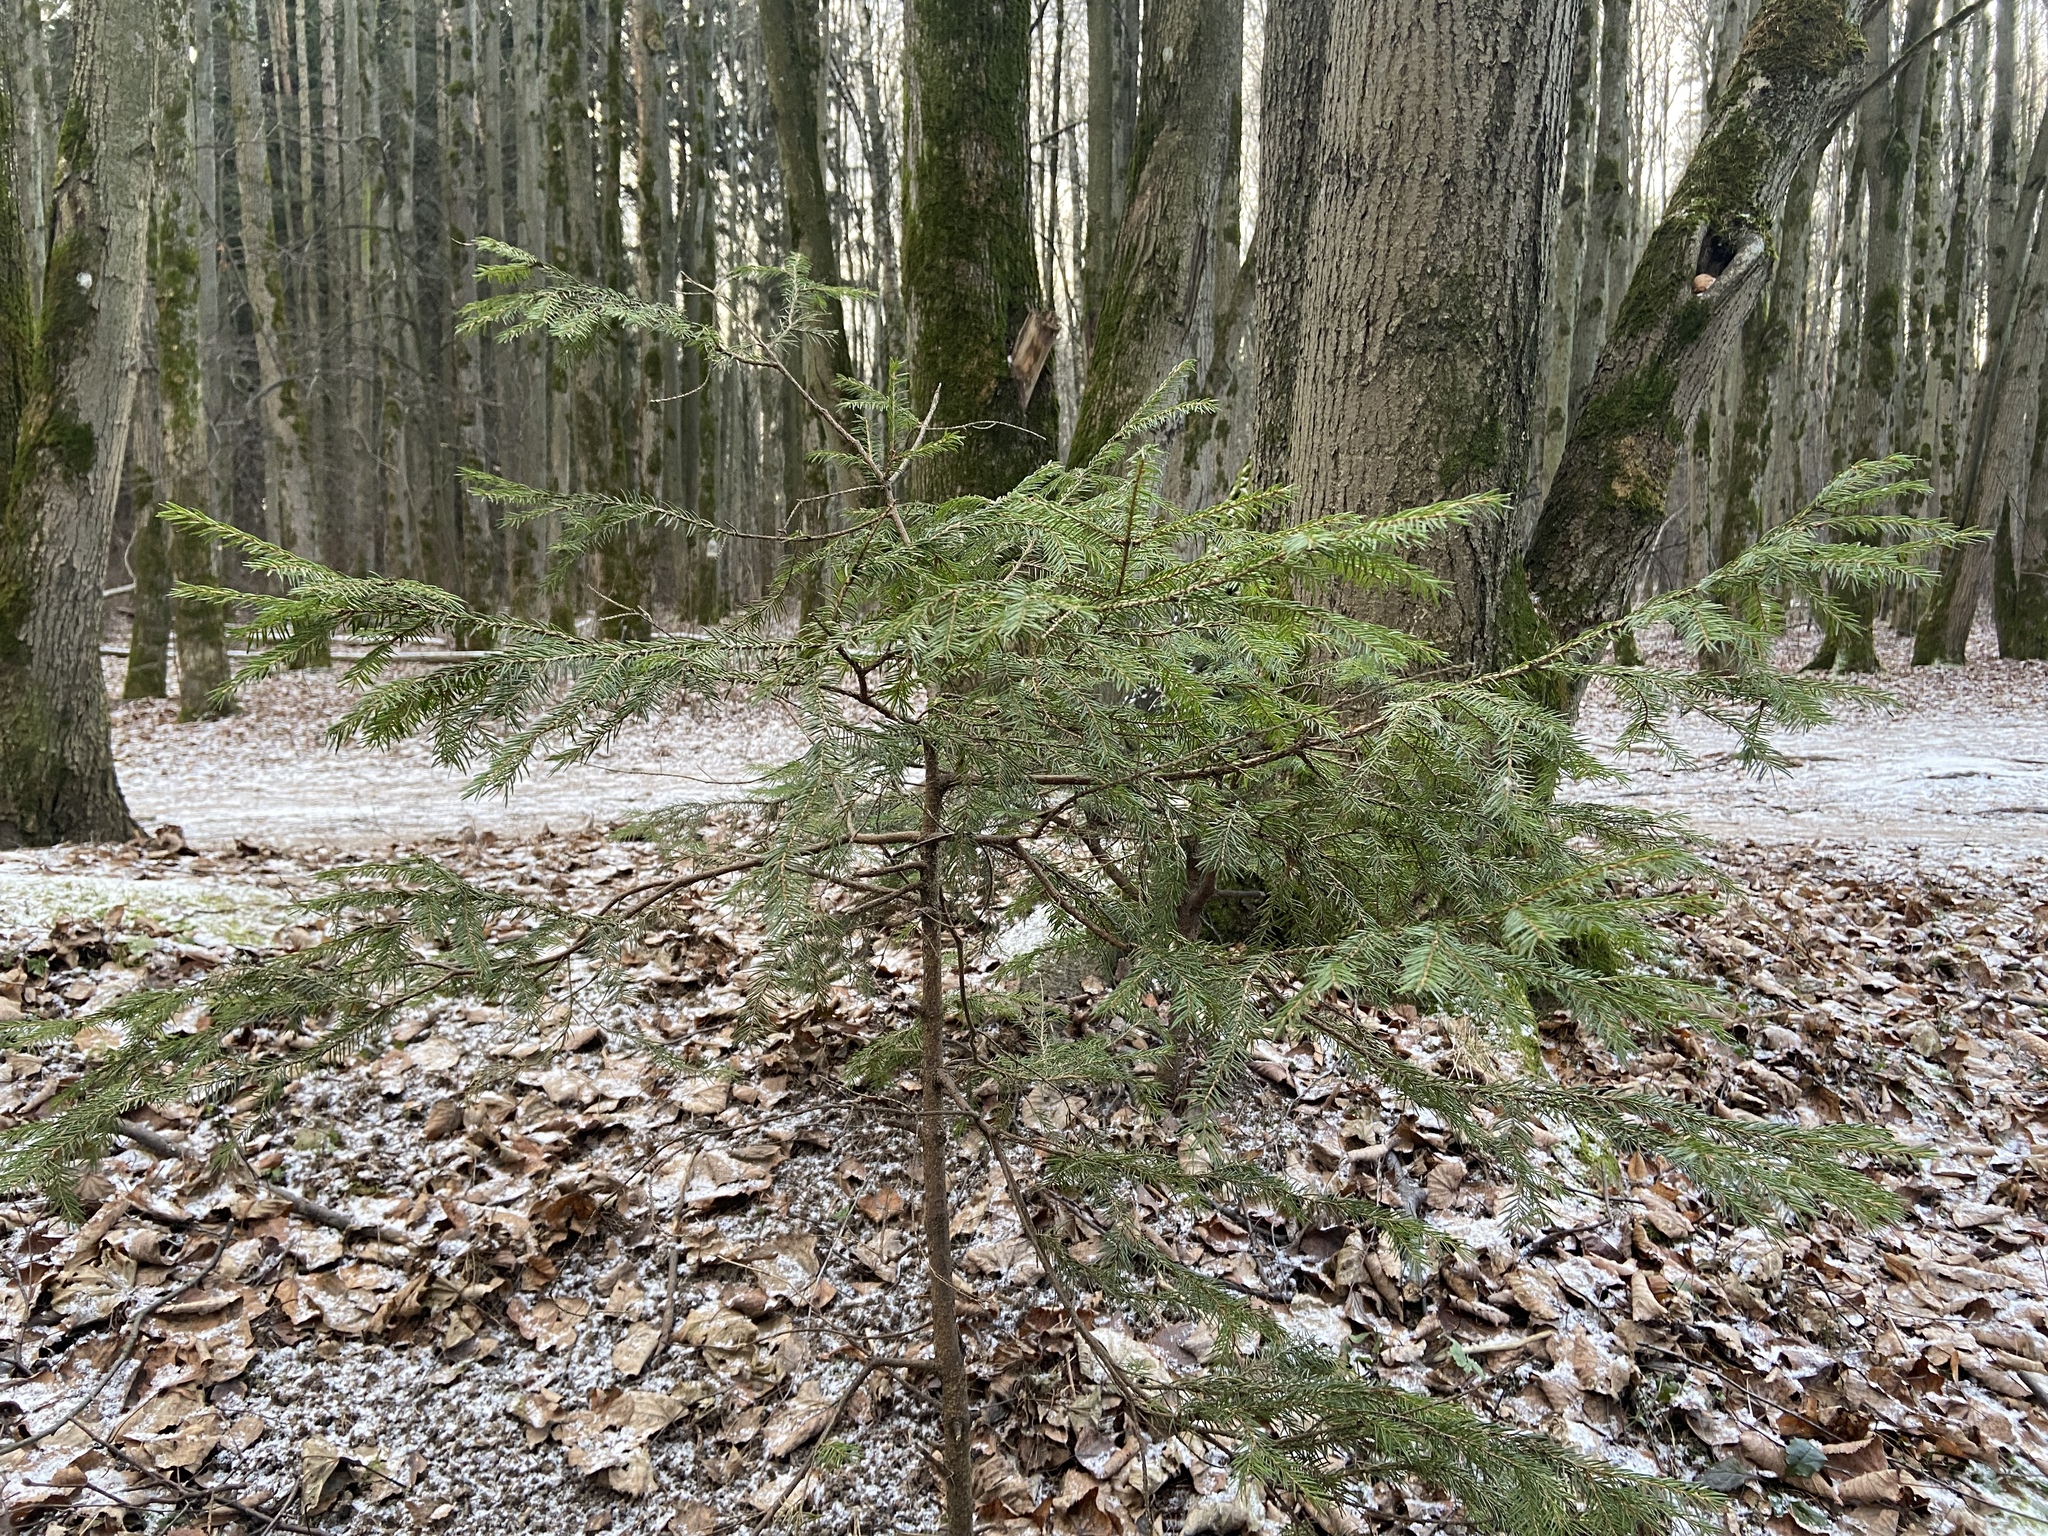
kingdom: Plantae
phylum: Tracheophyta
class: Pinopsida
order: Pinales
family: Pinaceae
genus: Picea
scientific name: Picea abies
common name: Norway spruce
